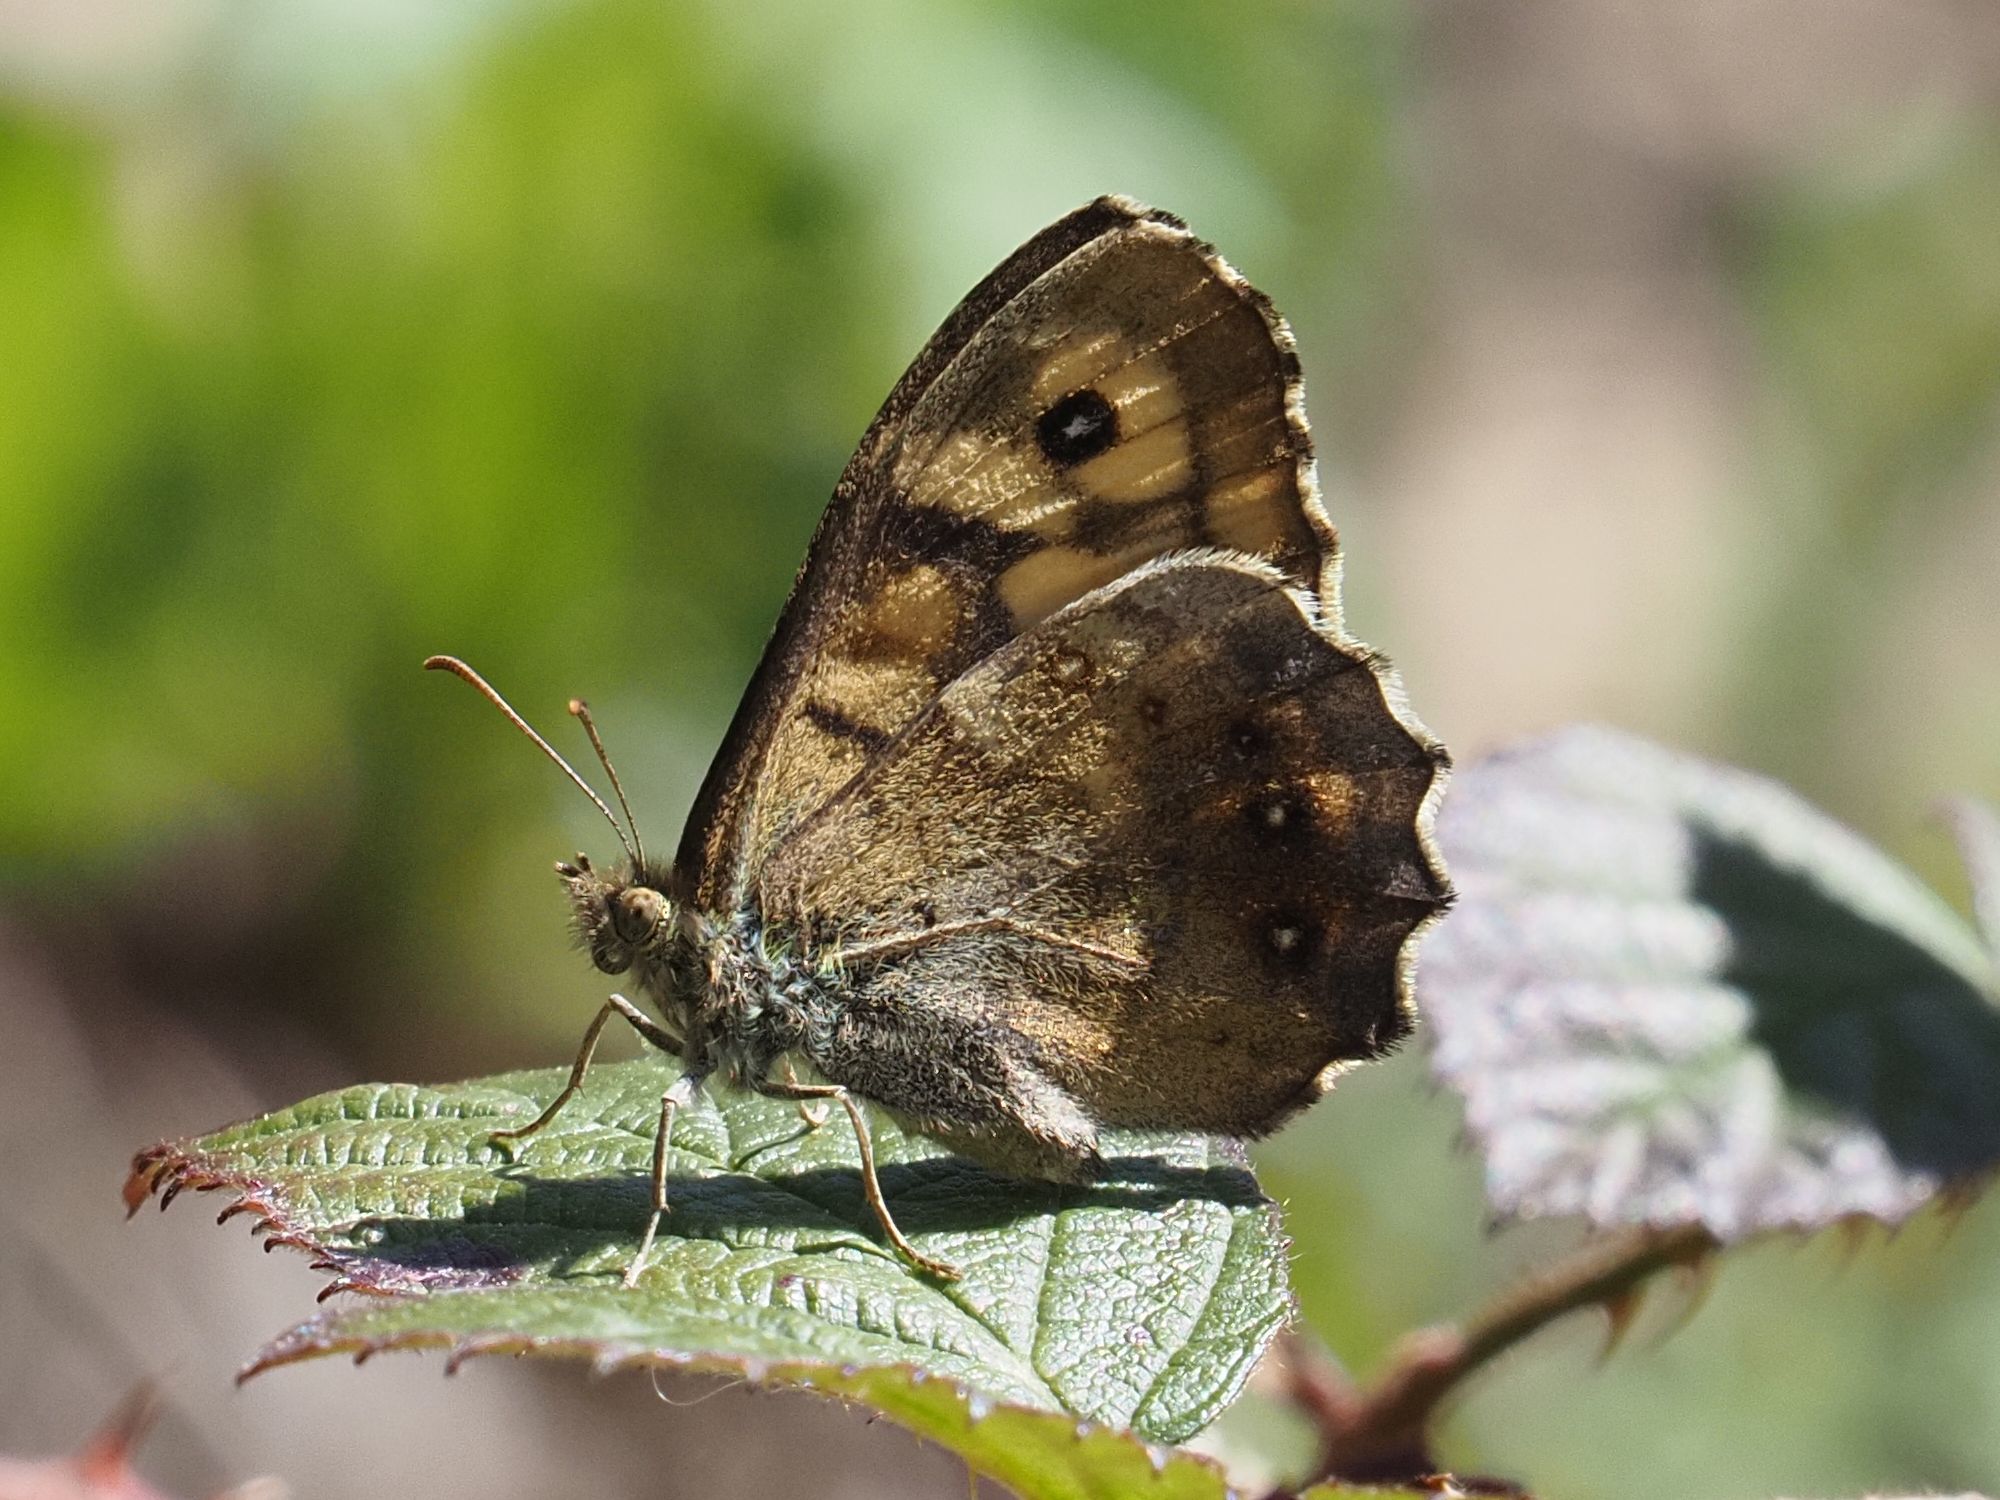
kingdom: Animalia
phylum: Arthropoda
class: Insecta
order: Lepidoptera
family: Nymphalidae
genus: Pararge
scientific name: Pararge aegeria
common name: Speckled wood
